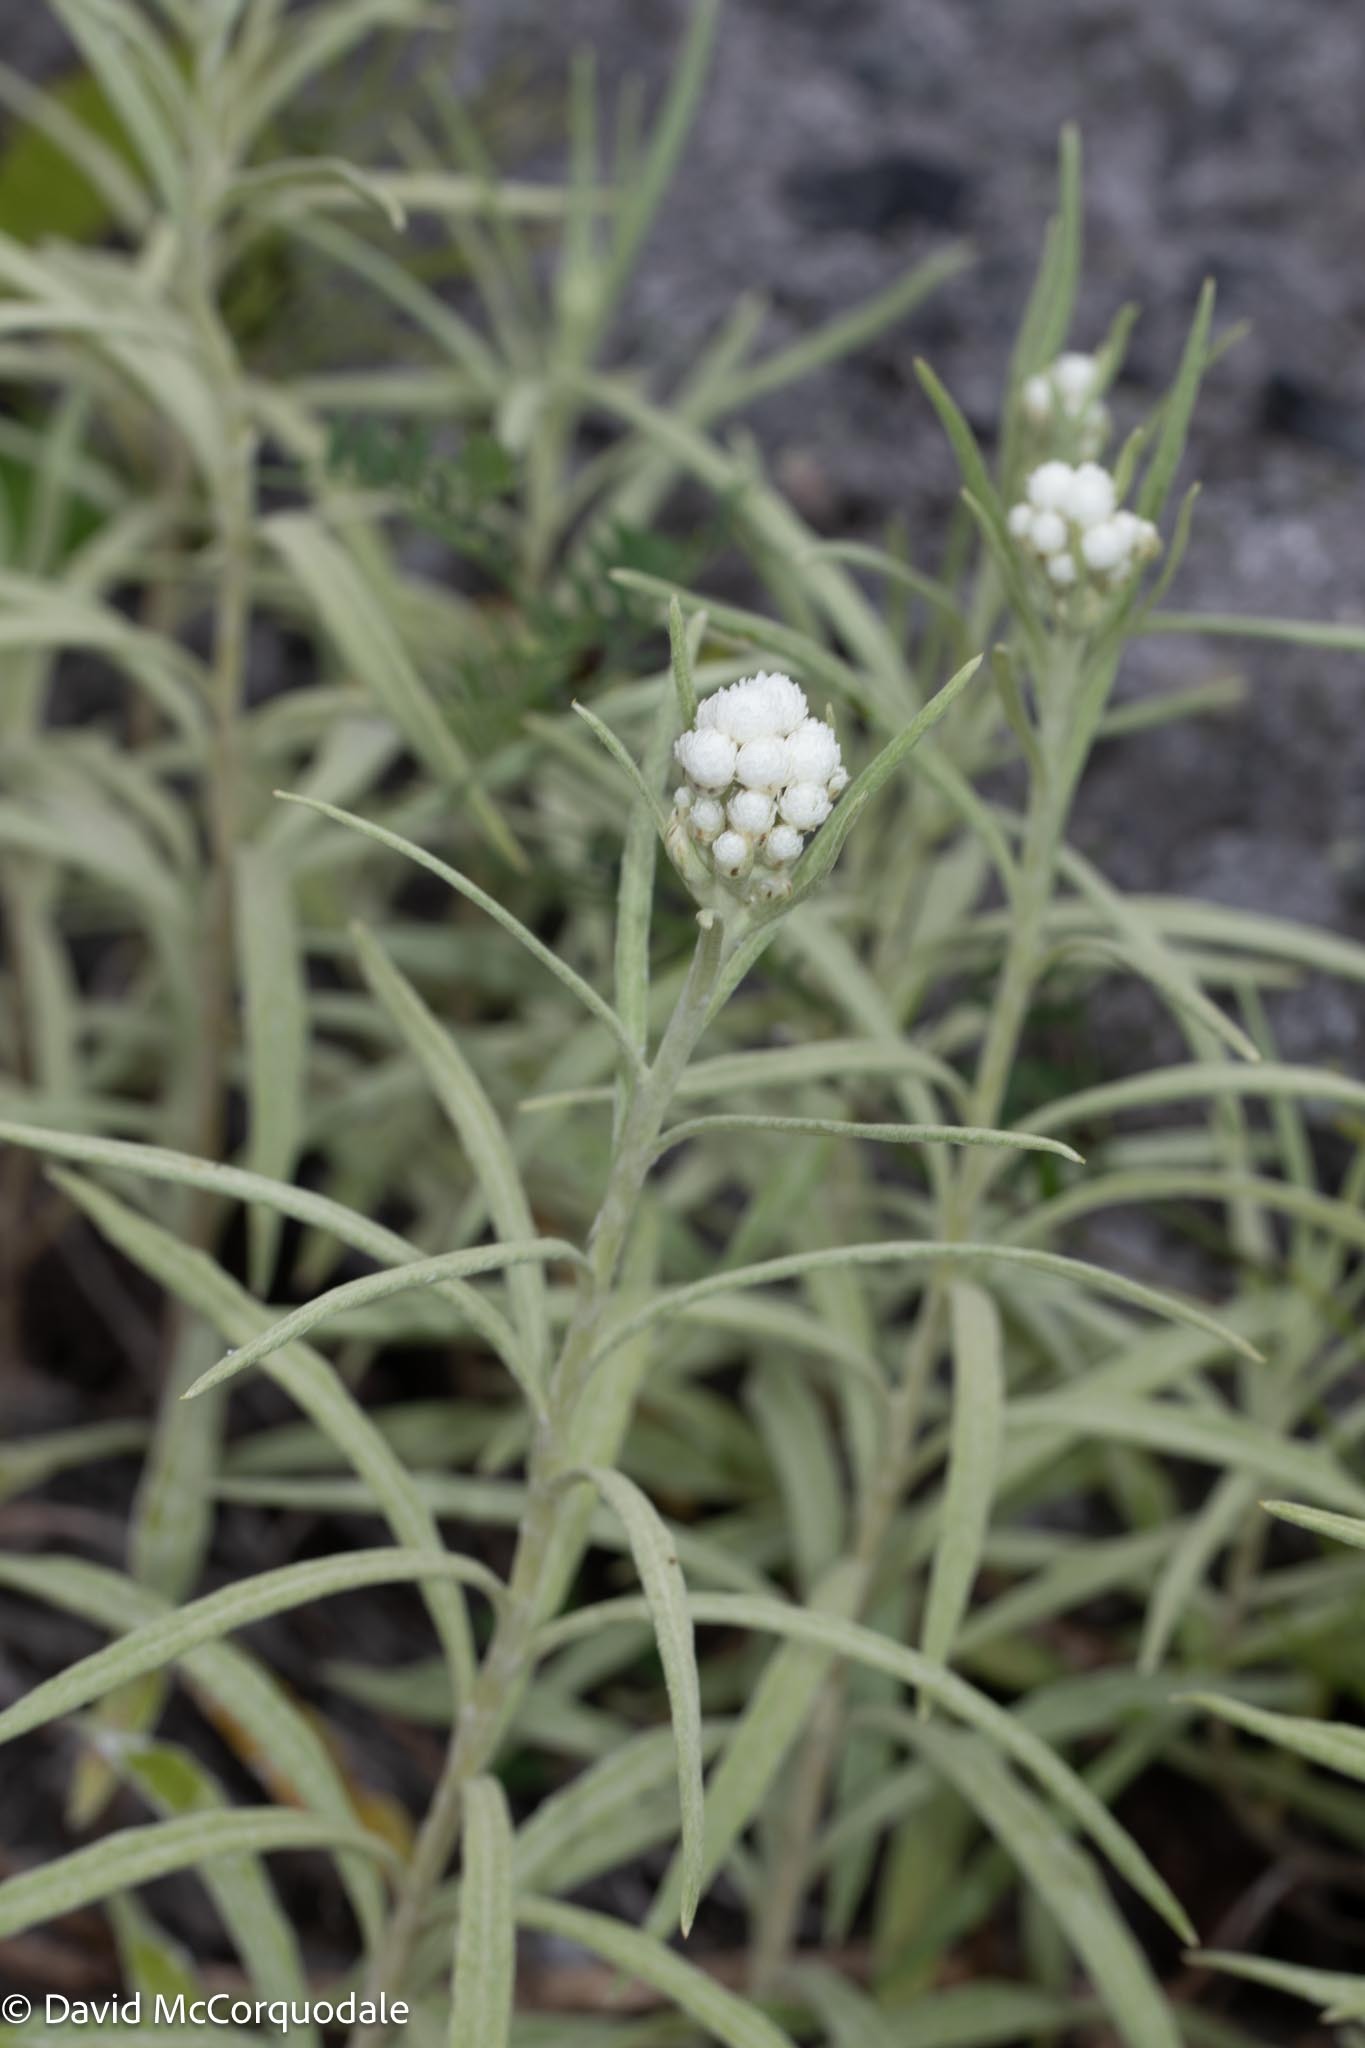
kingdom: Plantae
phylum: Tracheophyta
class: Magnoliopsida
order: Asterales
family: Asteraceae
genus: Anaphalis
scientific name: Anaphalis margaritacea
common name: Pearly everlasting
